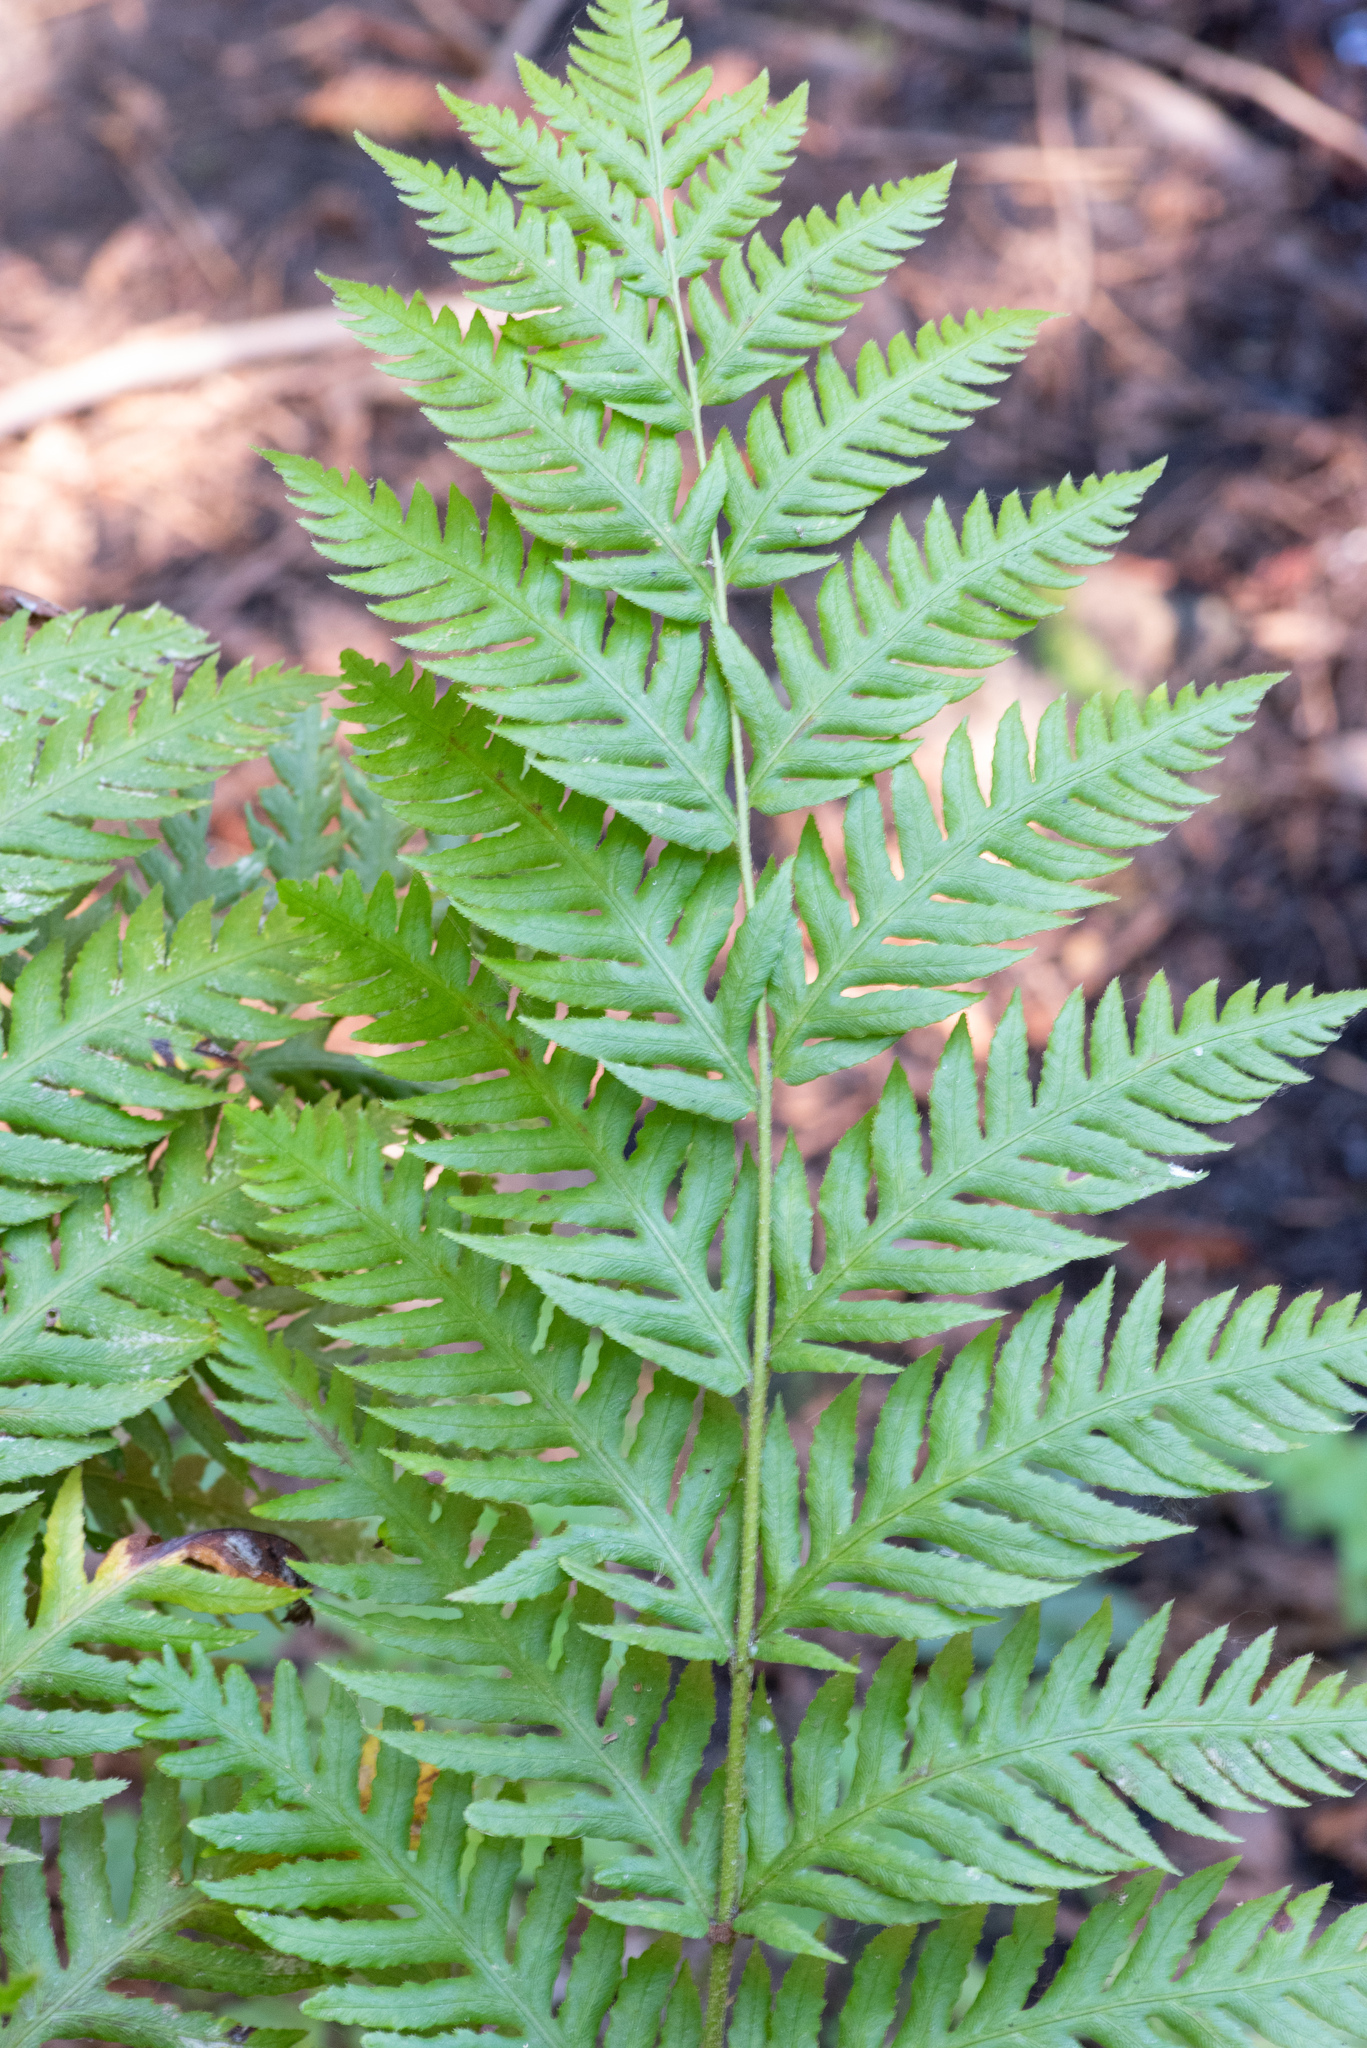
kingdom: Plantae
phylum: Tracheophyta
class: Polypodiopsida
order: Polypodiales
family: Blechnaceae
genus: Woodwardia
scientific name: Woodwardia fimbriata
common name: Giant chain fern
